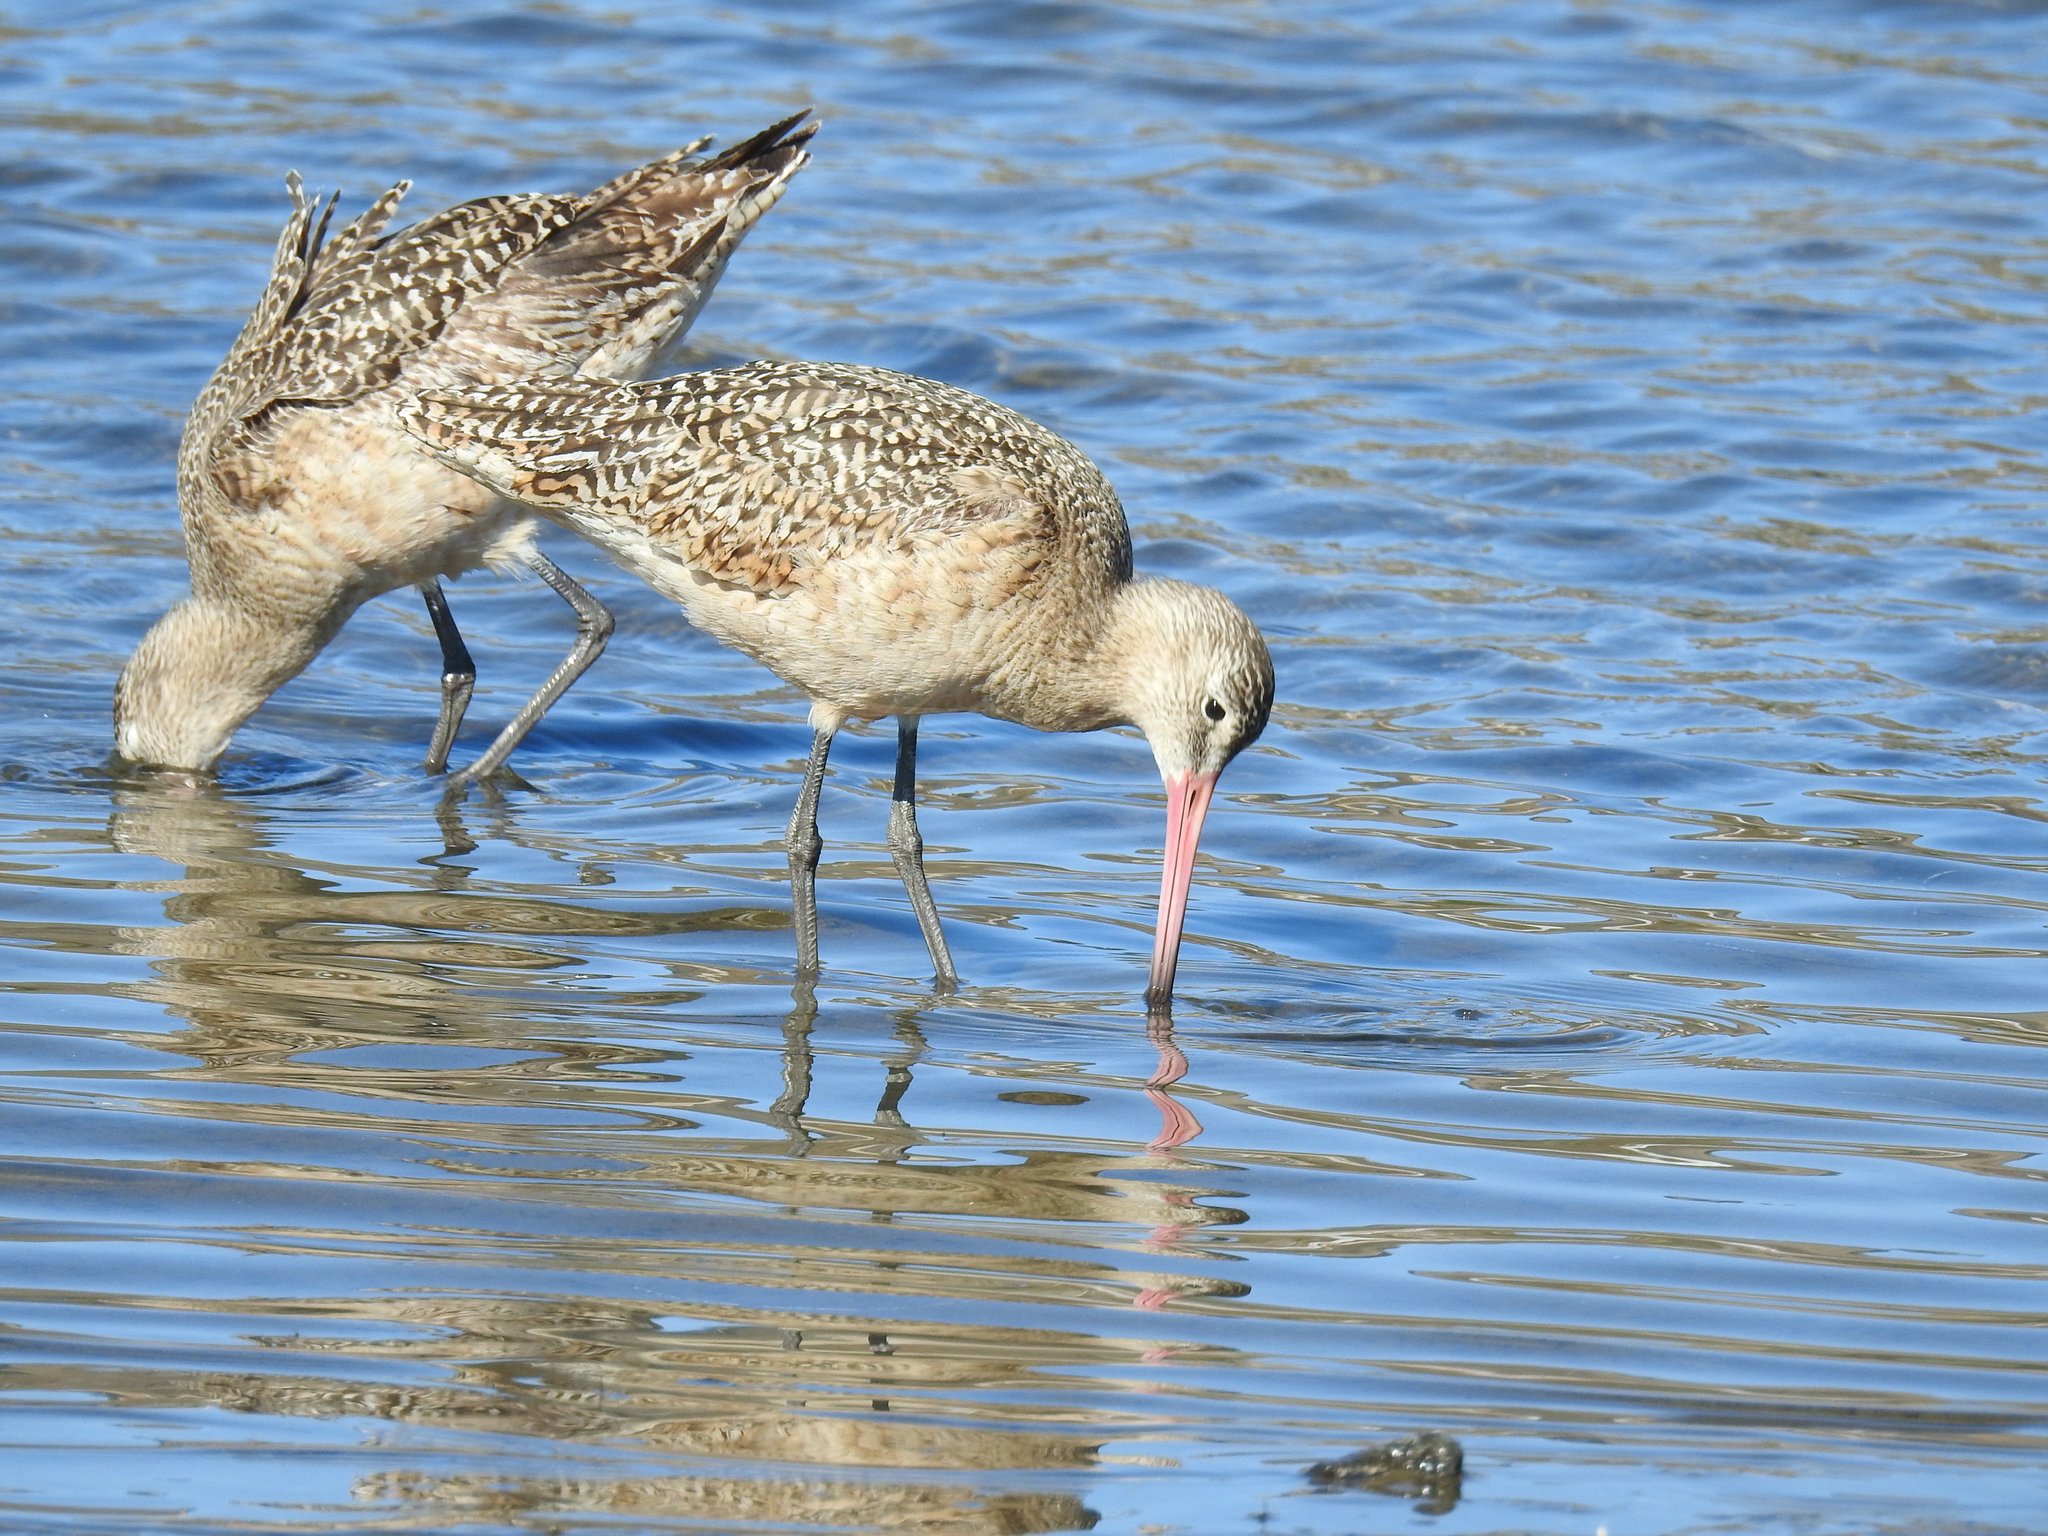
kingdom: Animalia
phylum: Chordata
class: Aves
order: Charadriiformes
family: Scolopacidae
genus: Limosa
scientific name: Limosa fedoa
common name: Marbled godwit
